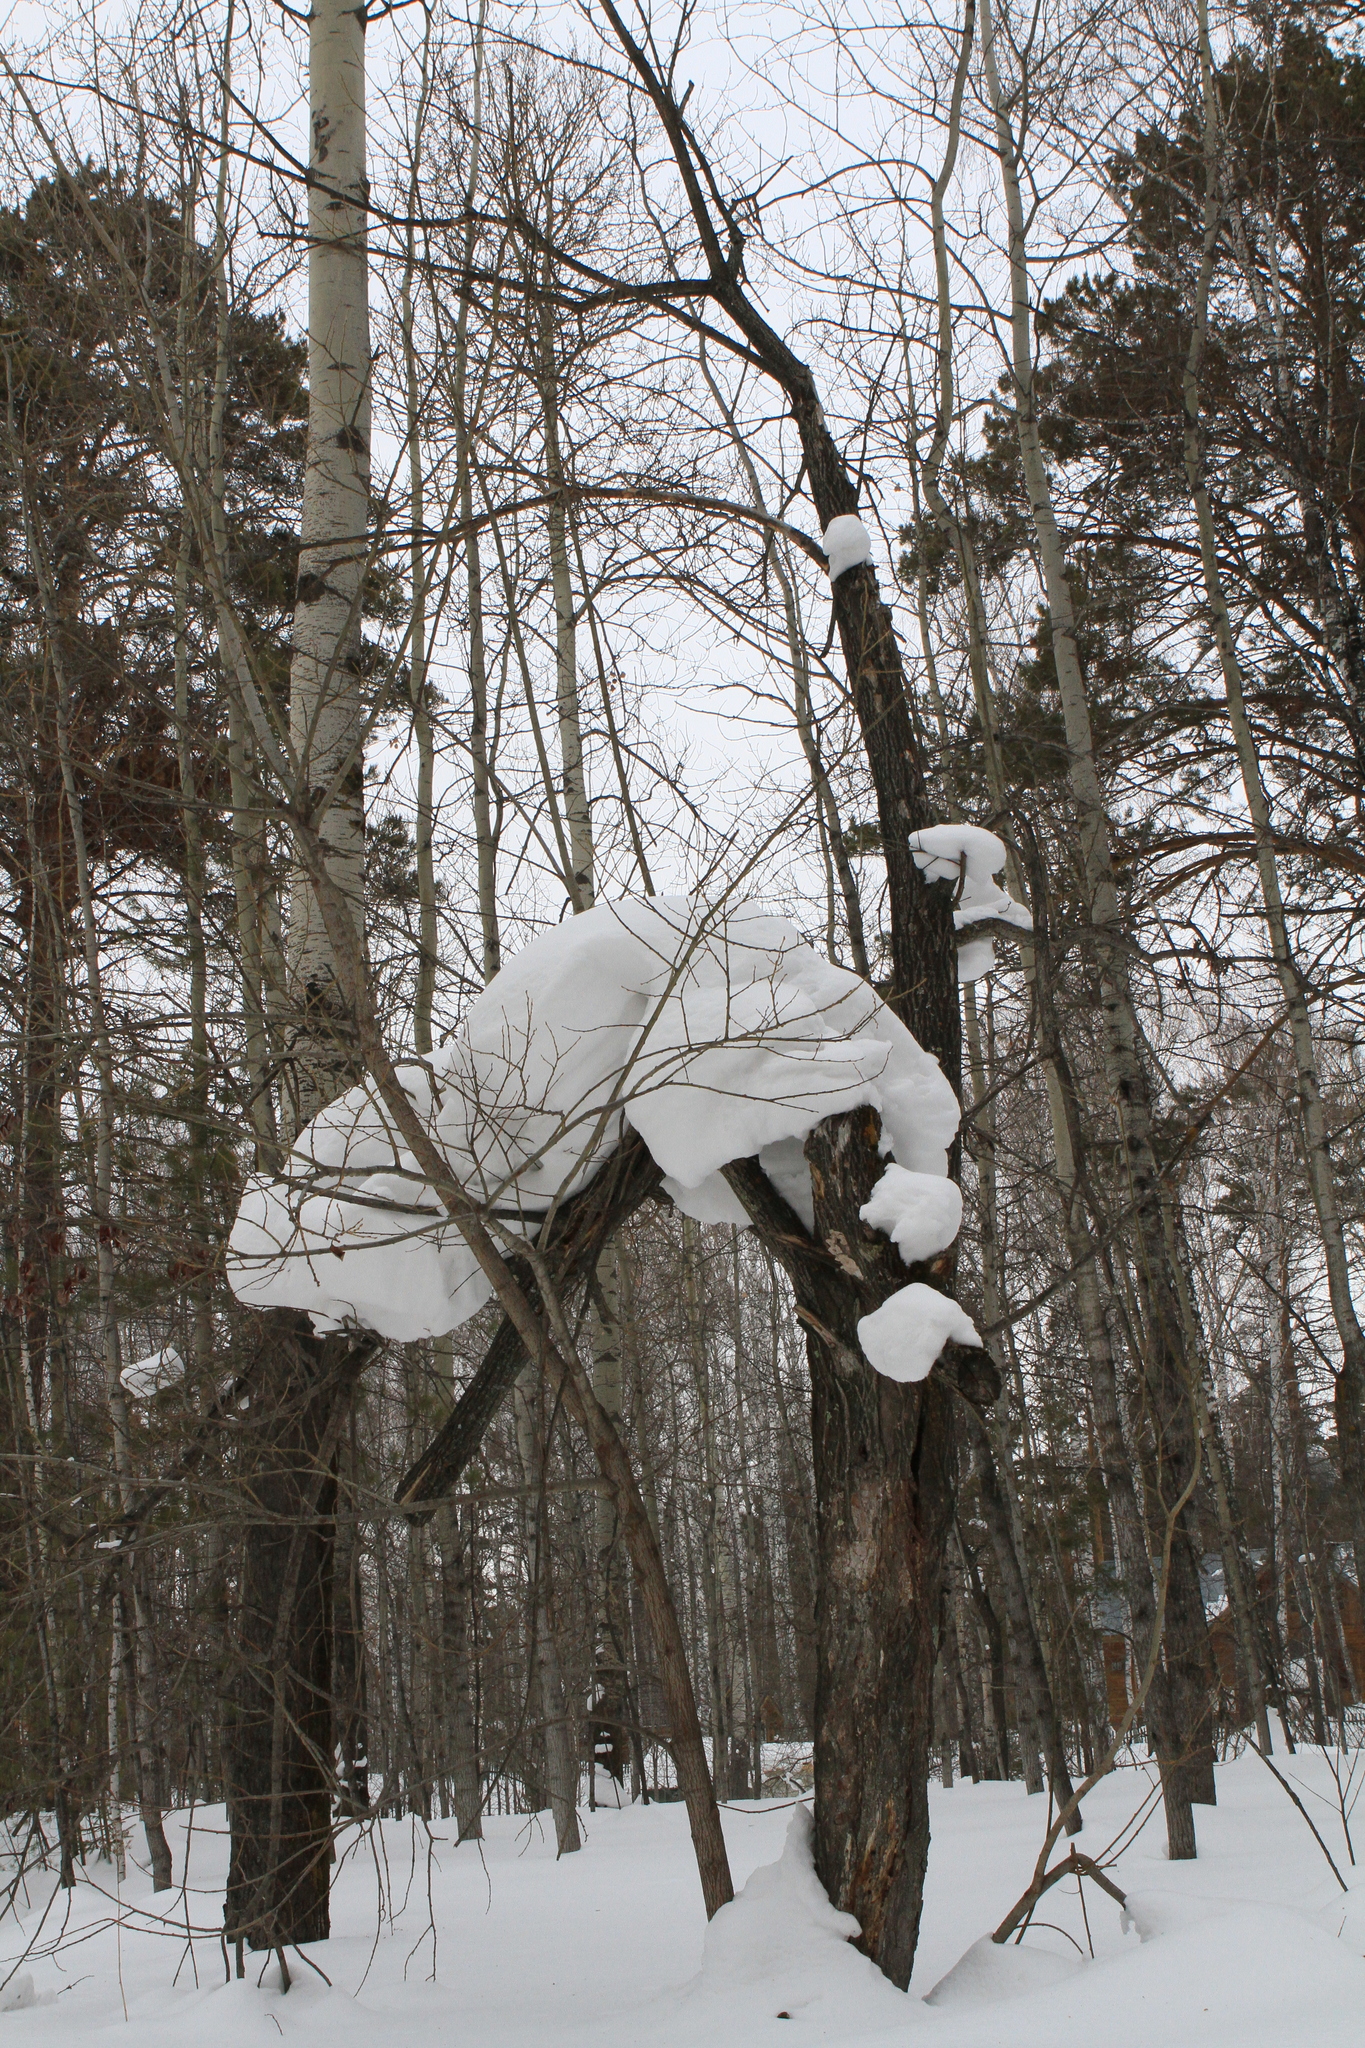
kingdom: Plantae
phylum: Tracheophyta
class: Magnoliopsida
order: Malpighiales
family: Salicaceae
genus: Salix
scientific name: Salix caprea
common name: Goat willow
